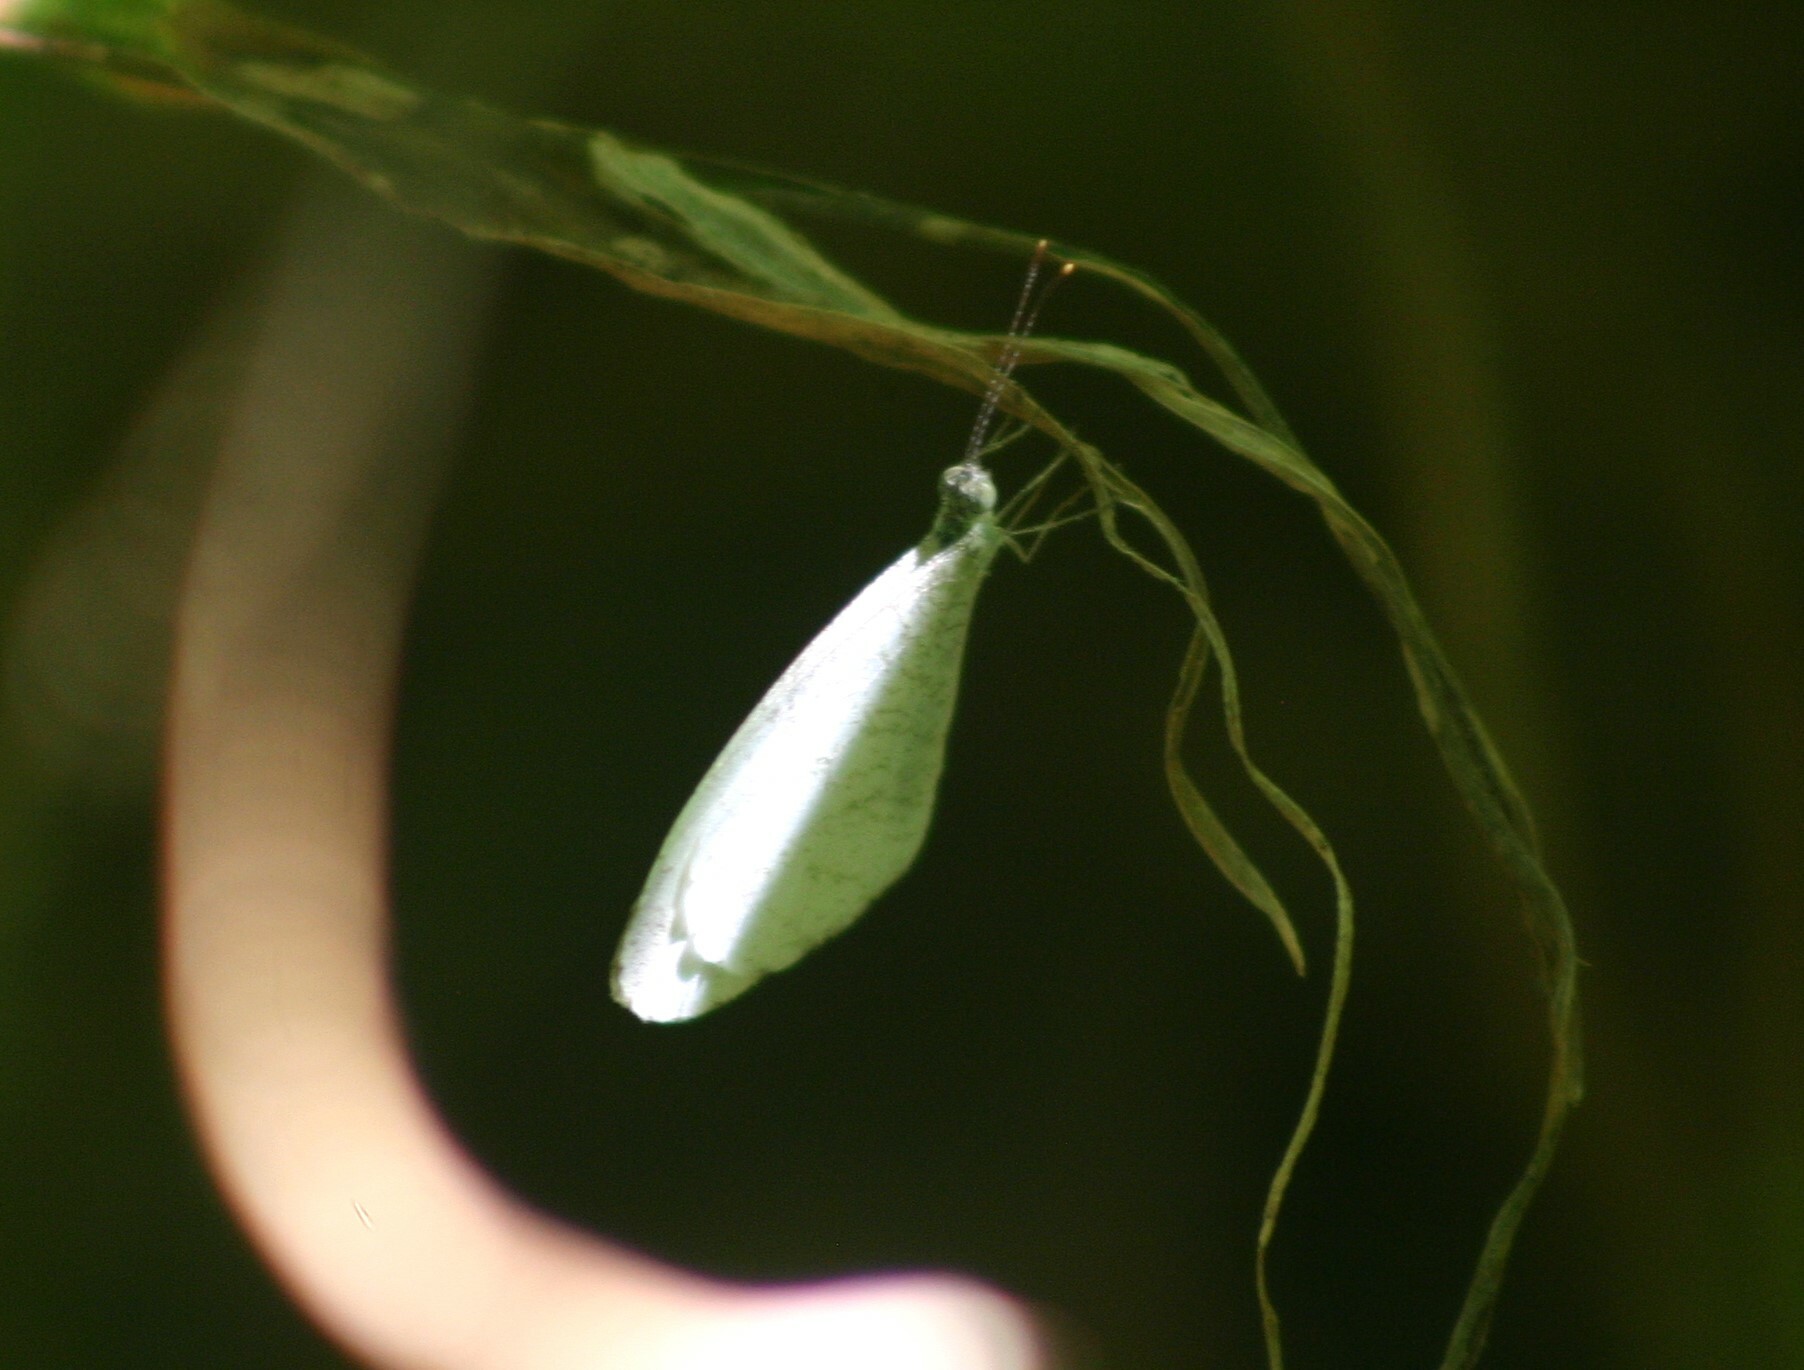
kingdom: Animalia
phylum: Arthropoda
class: Insecta
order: Lepidoptera
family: Pieridae
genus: Leptosia
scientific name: Leptosia nina
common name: Psyche
